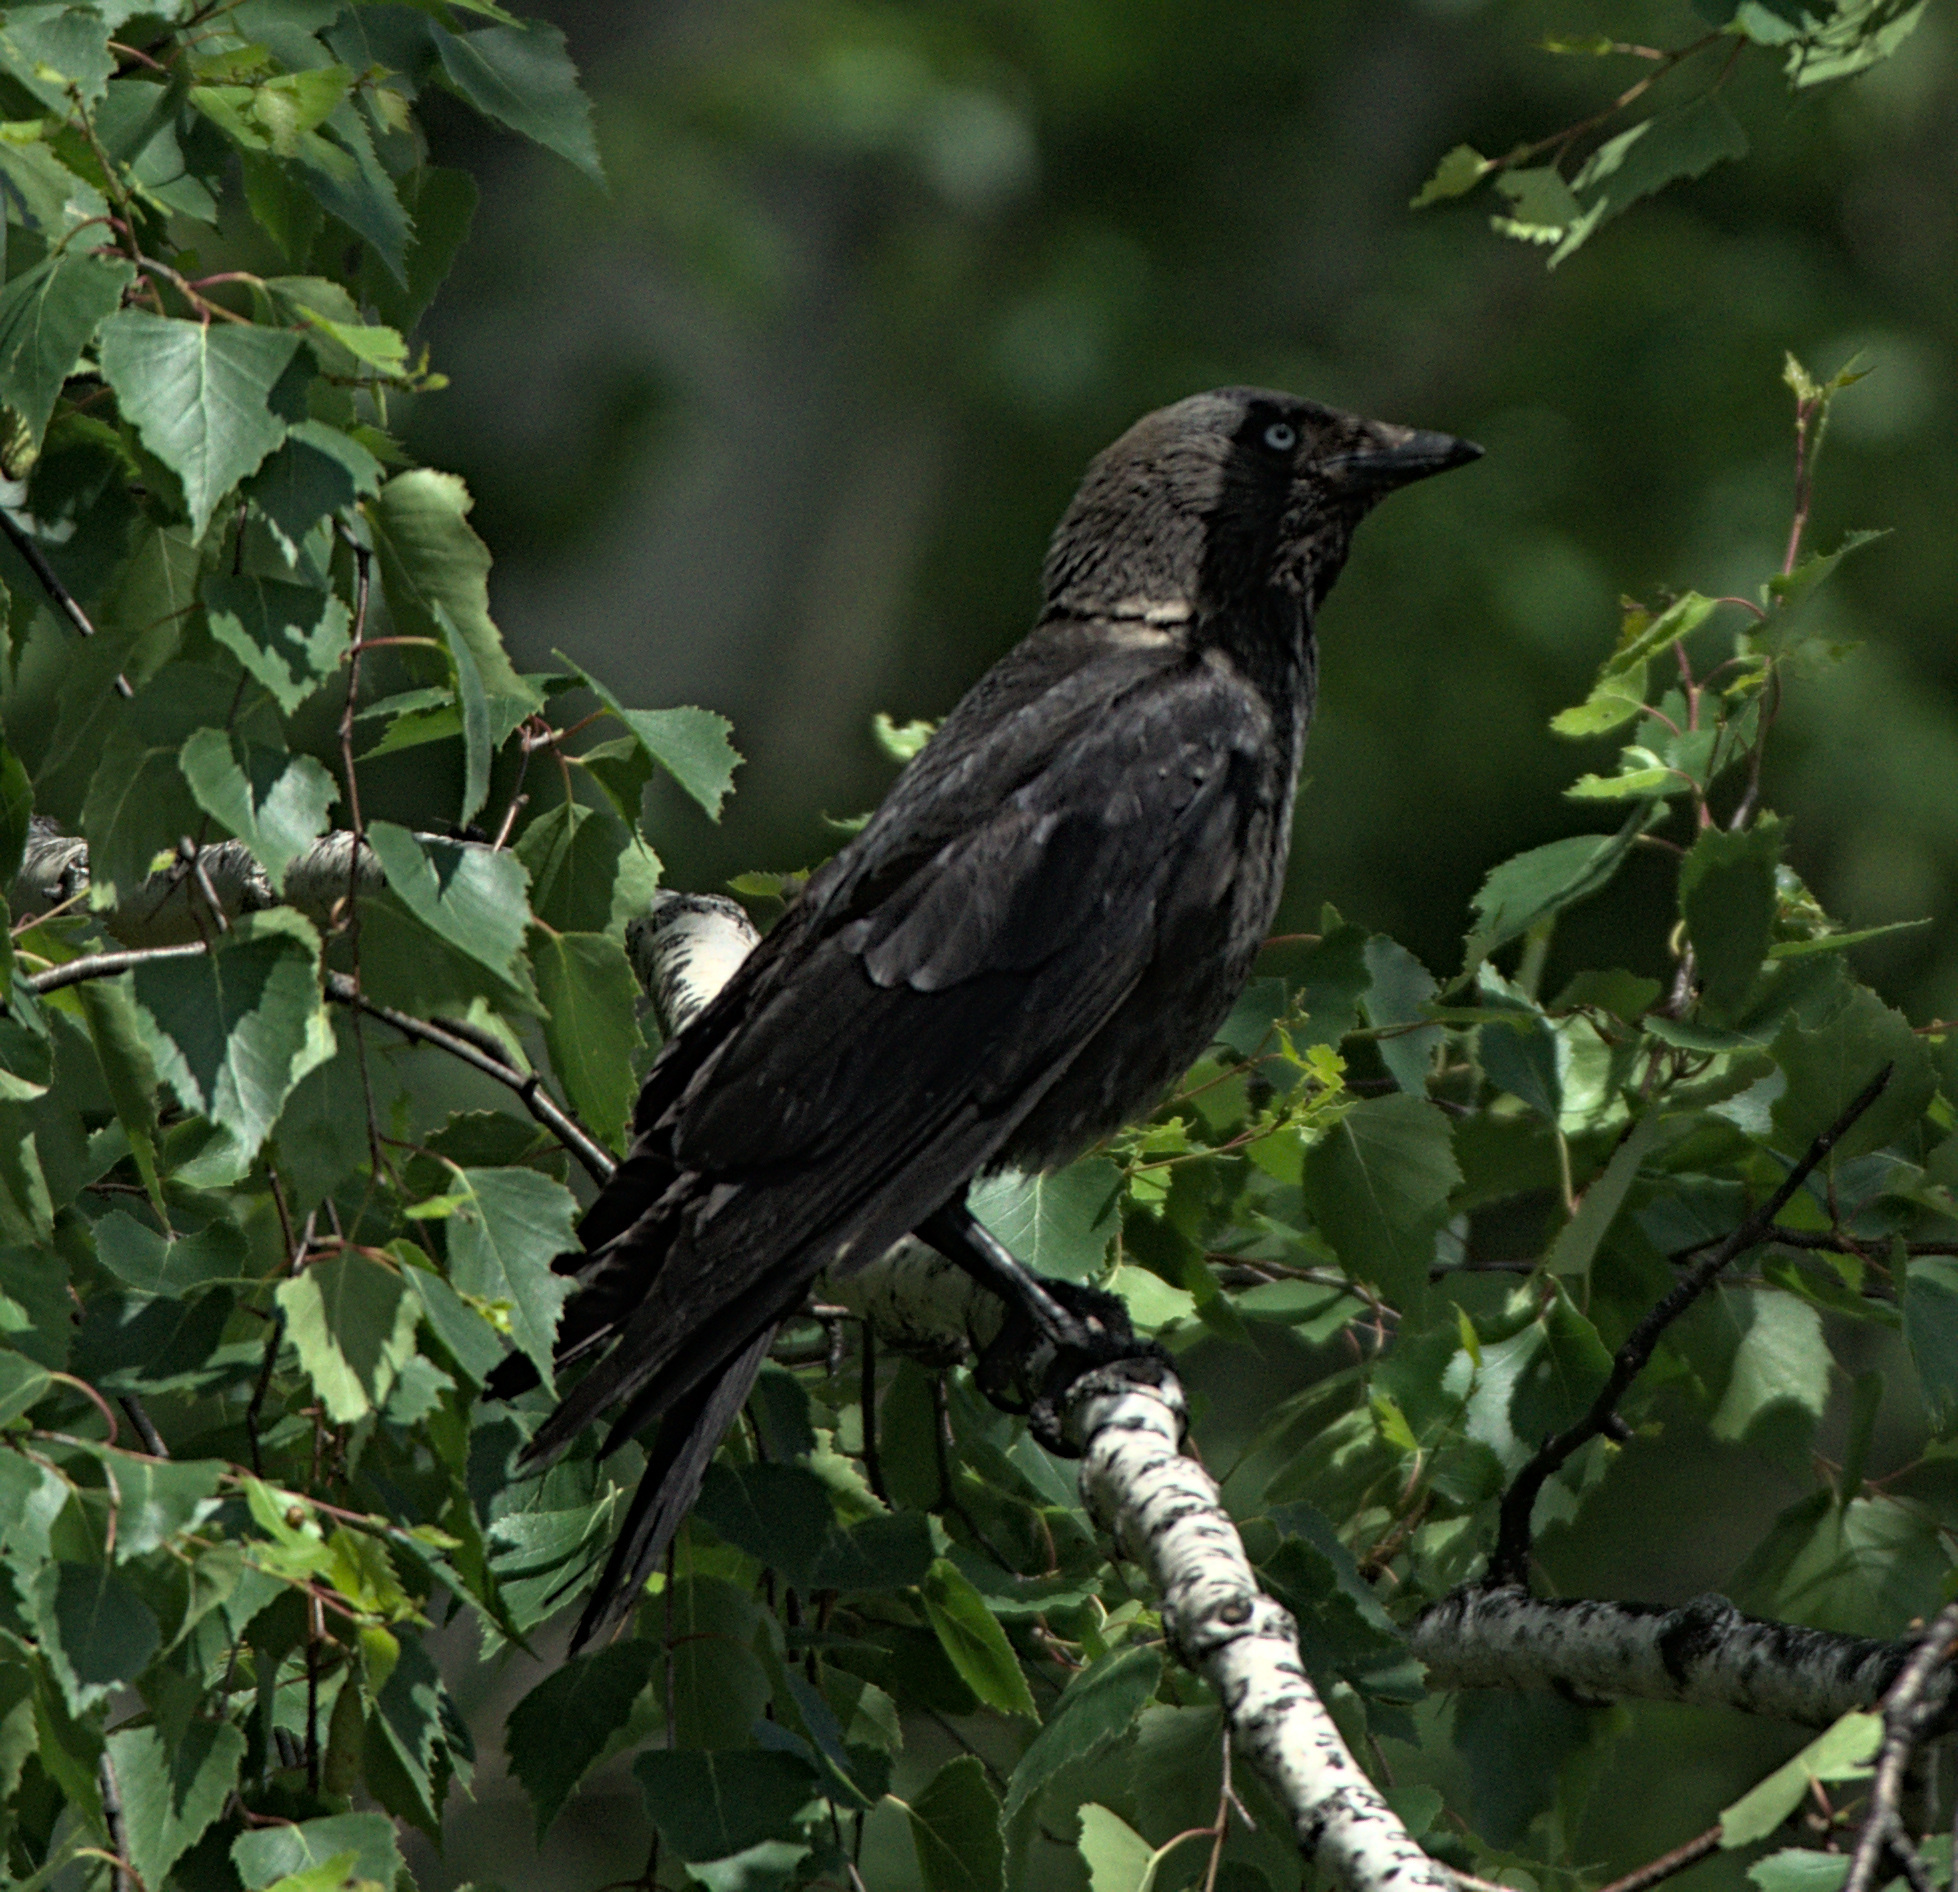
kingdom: Animalia
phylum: Chordata
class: Aves
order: Passeriformes
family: Corvidae
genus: Coloeus
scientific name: Coloeus monedula
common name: Western jackdaw
